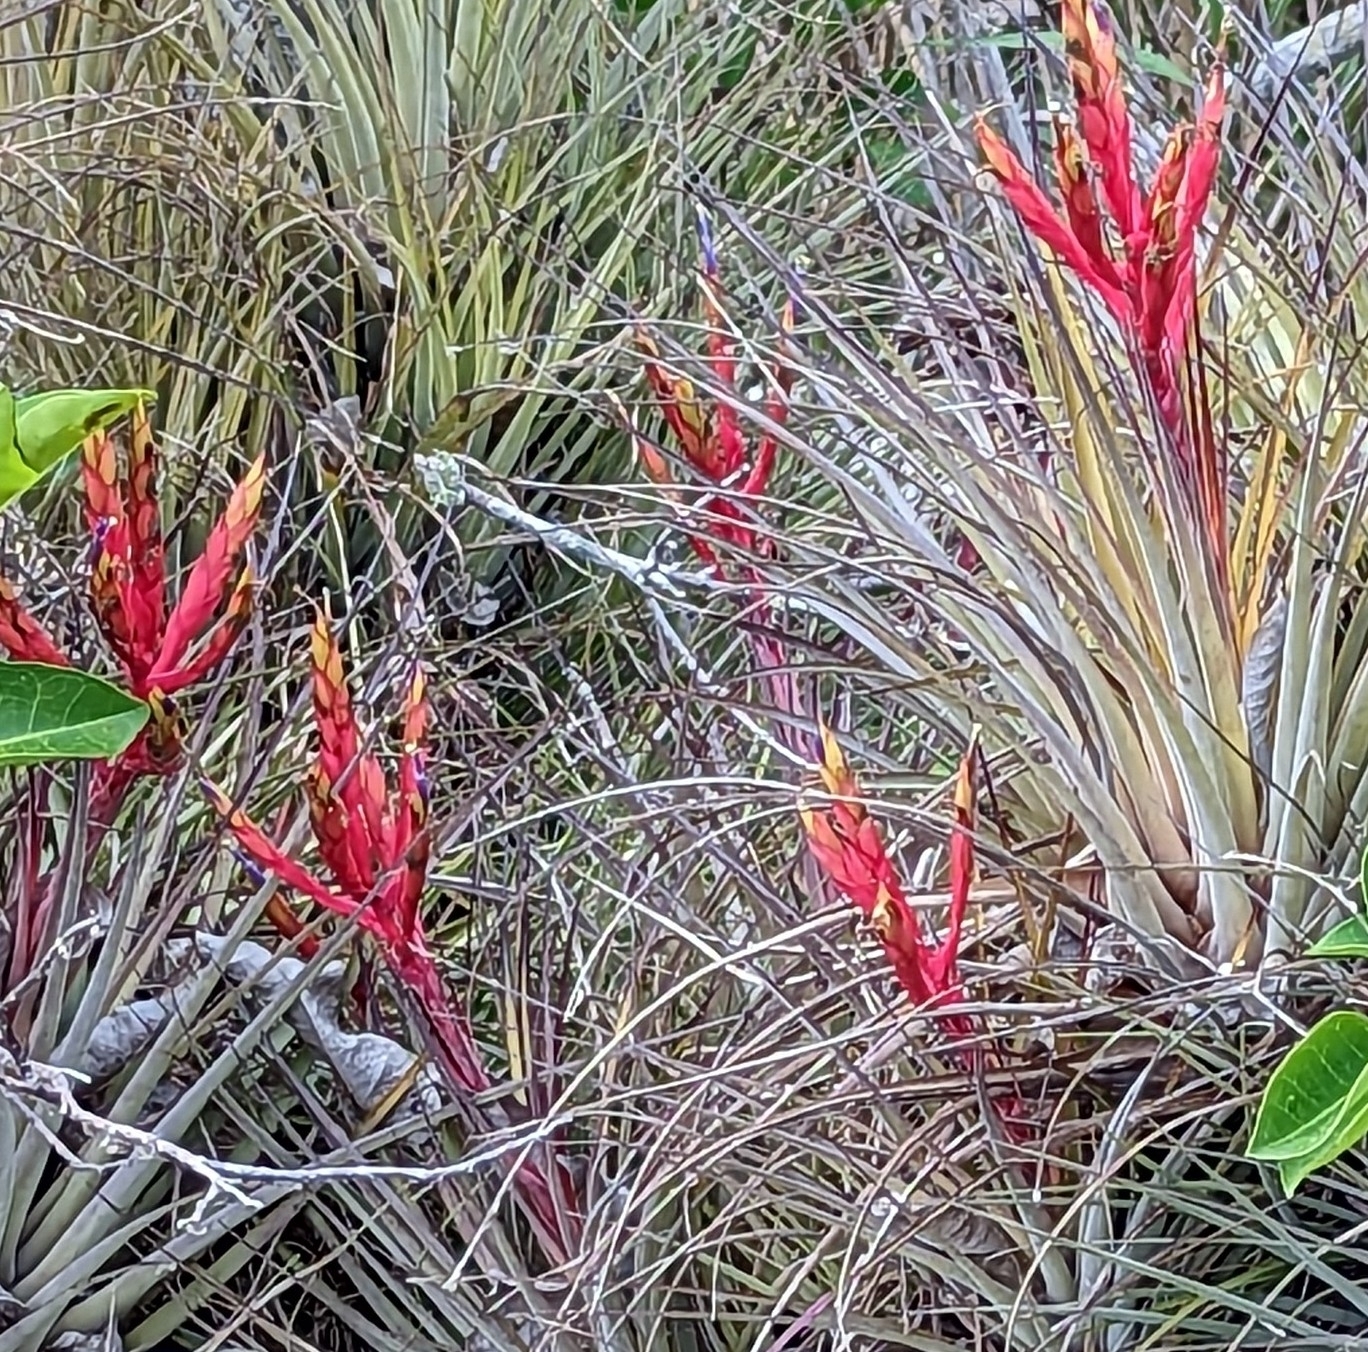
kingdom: Plantae
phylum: Tracheophyta
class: Liliopsida
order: Poales
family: Bromeliaceae
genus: Tillandsia
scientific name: Tillandsia fasciculata
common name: Giant airplant
